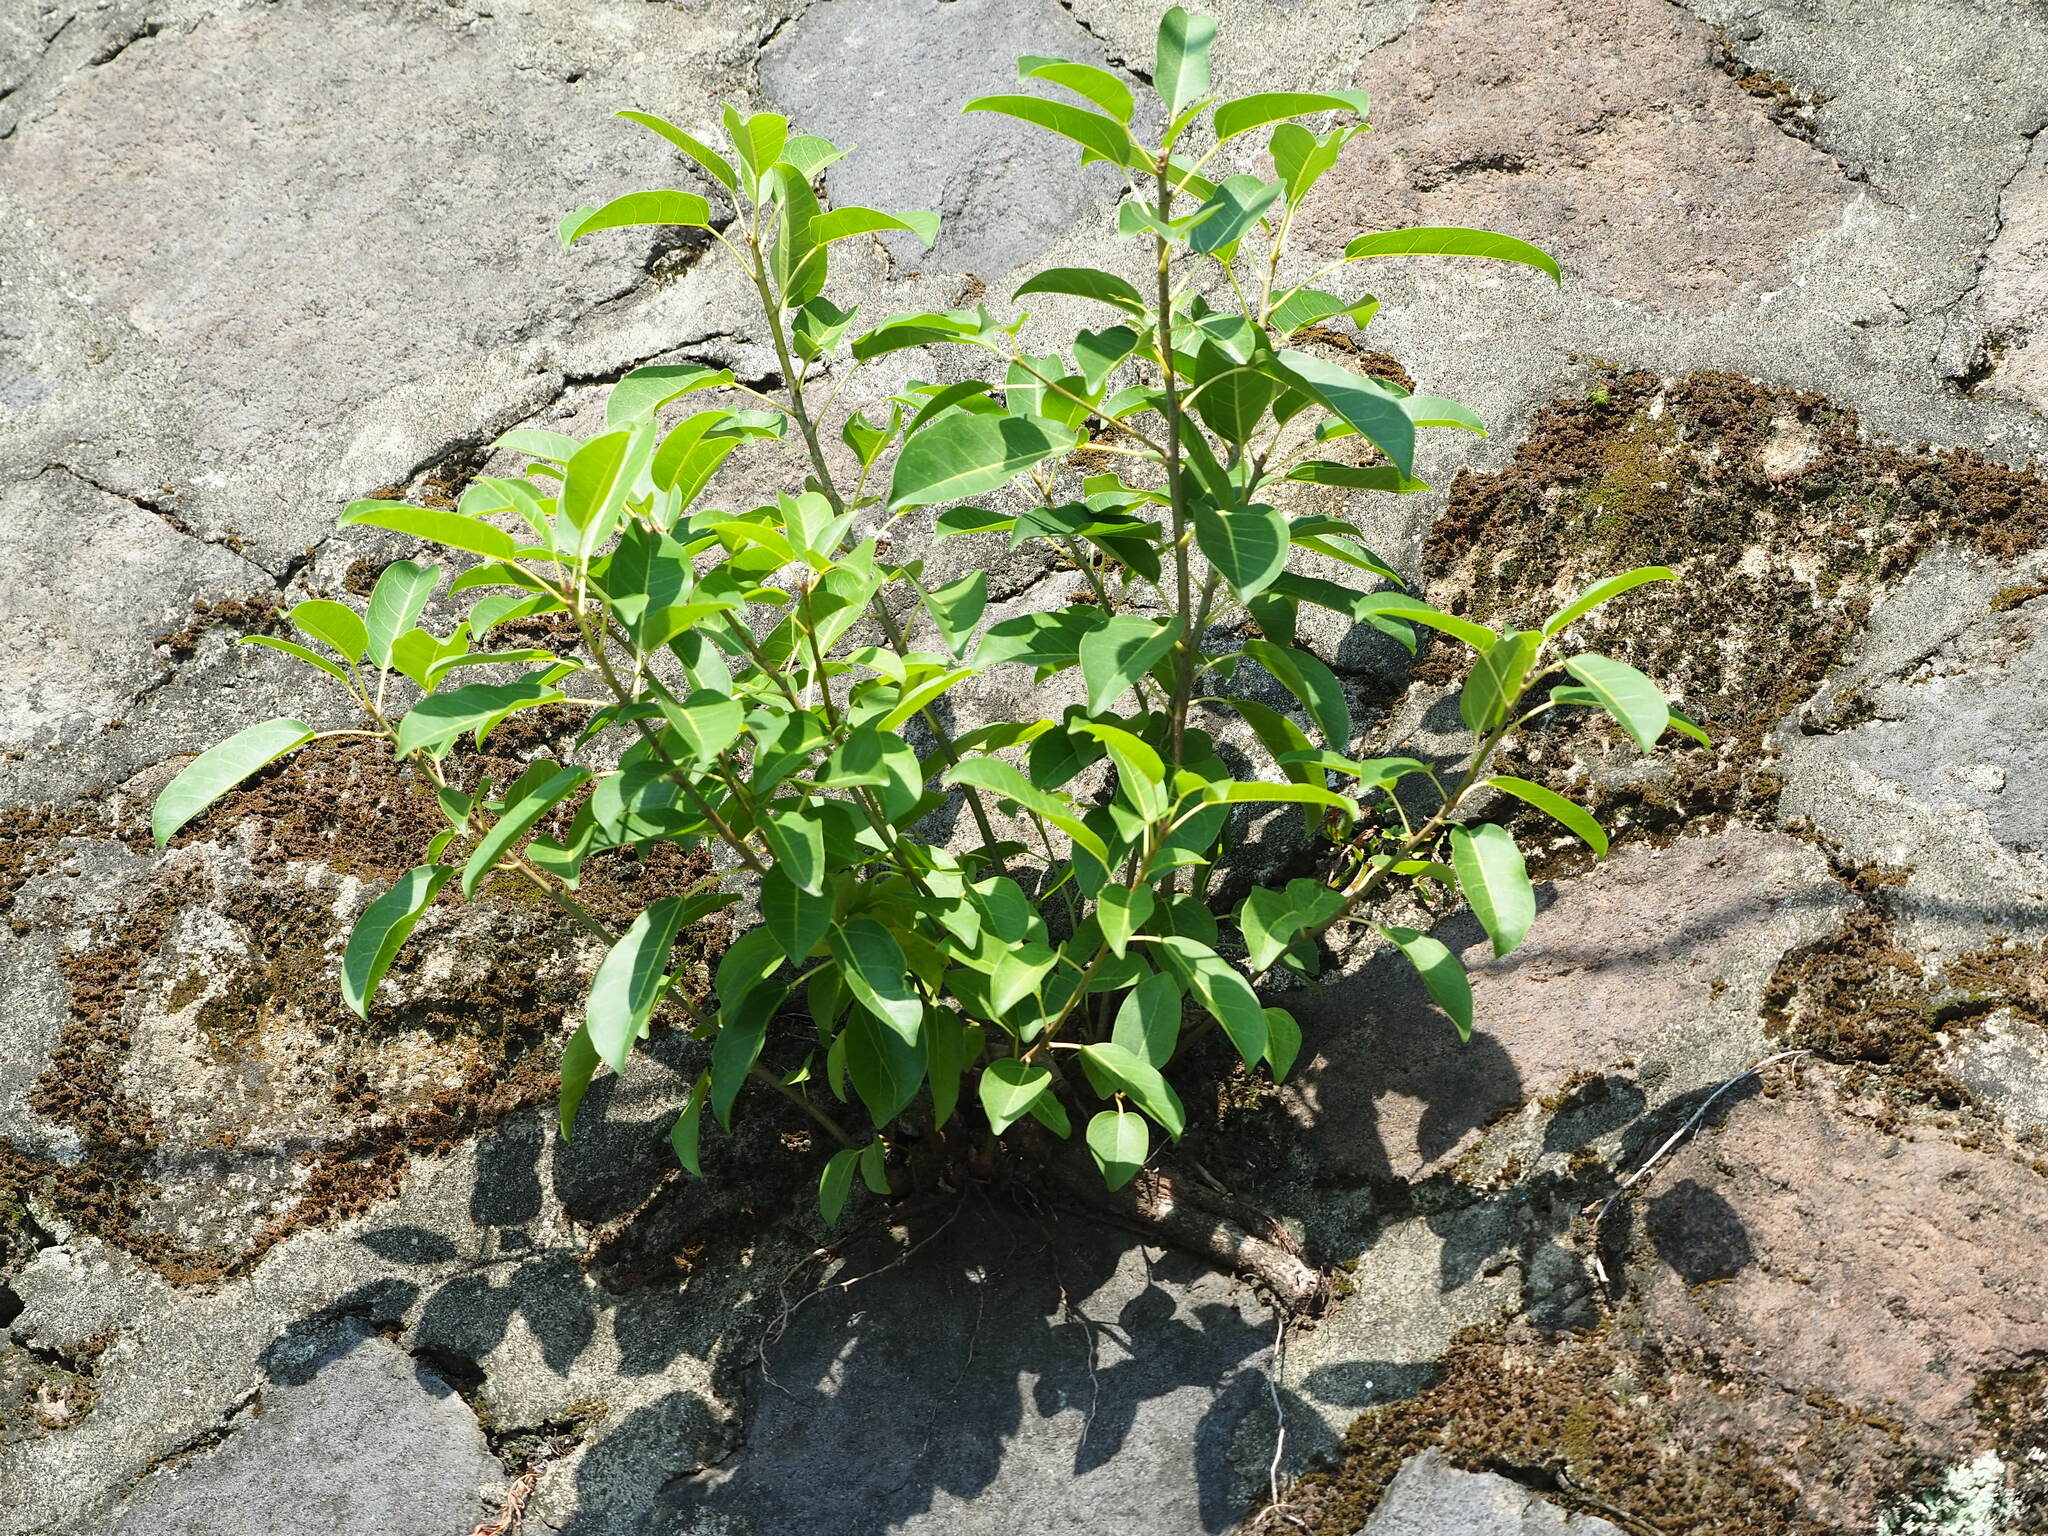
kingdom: Plantae
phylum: Tracheophyta
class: Magnoliopsida
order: Rosales
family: Moraceae
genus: Ficus
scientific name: Ficus subpisocarpa
